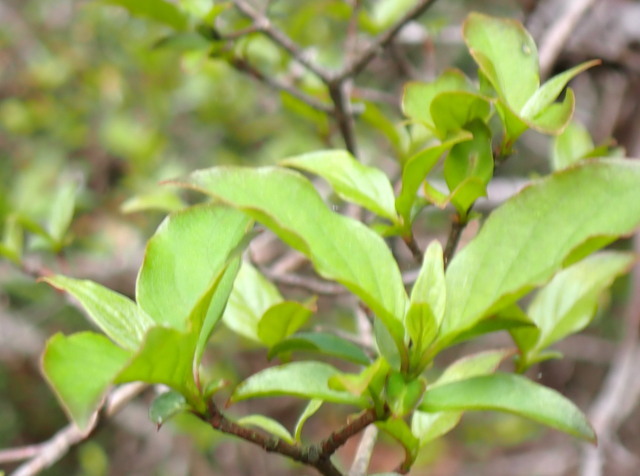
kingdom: Plantae
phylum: Tracheophyta
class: Magnoliopsida
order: Cornales
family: Cornaceae
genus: Cornus
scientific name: Cornus foemina
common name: Swamp dogwood
